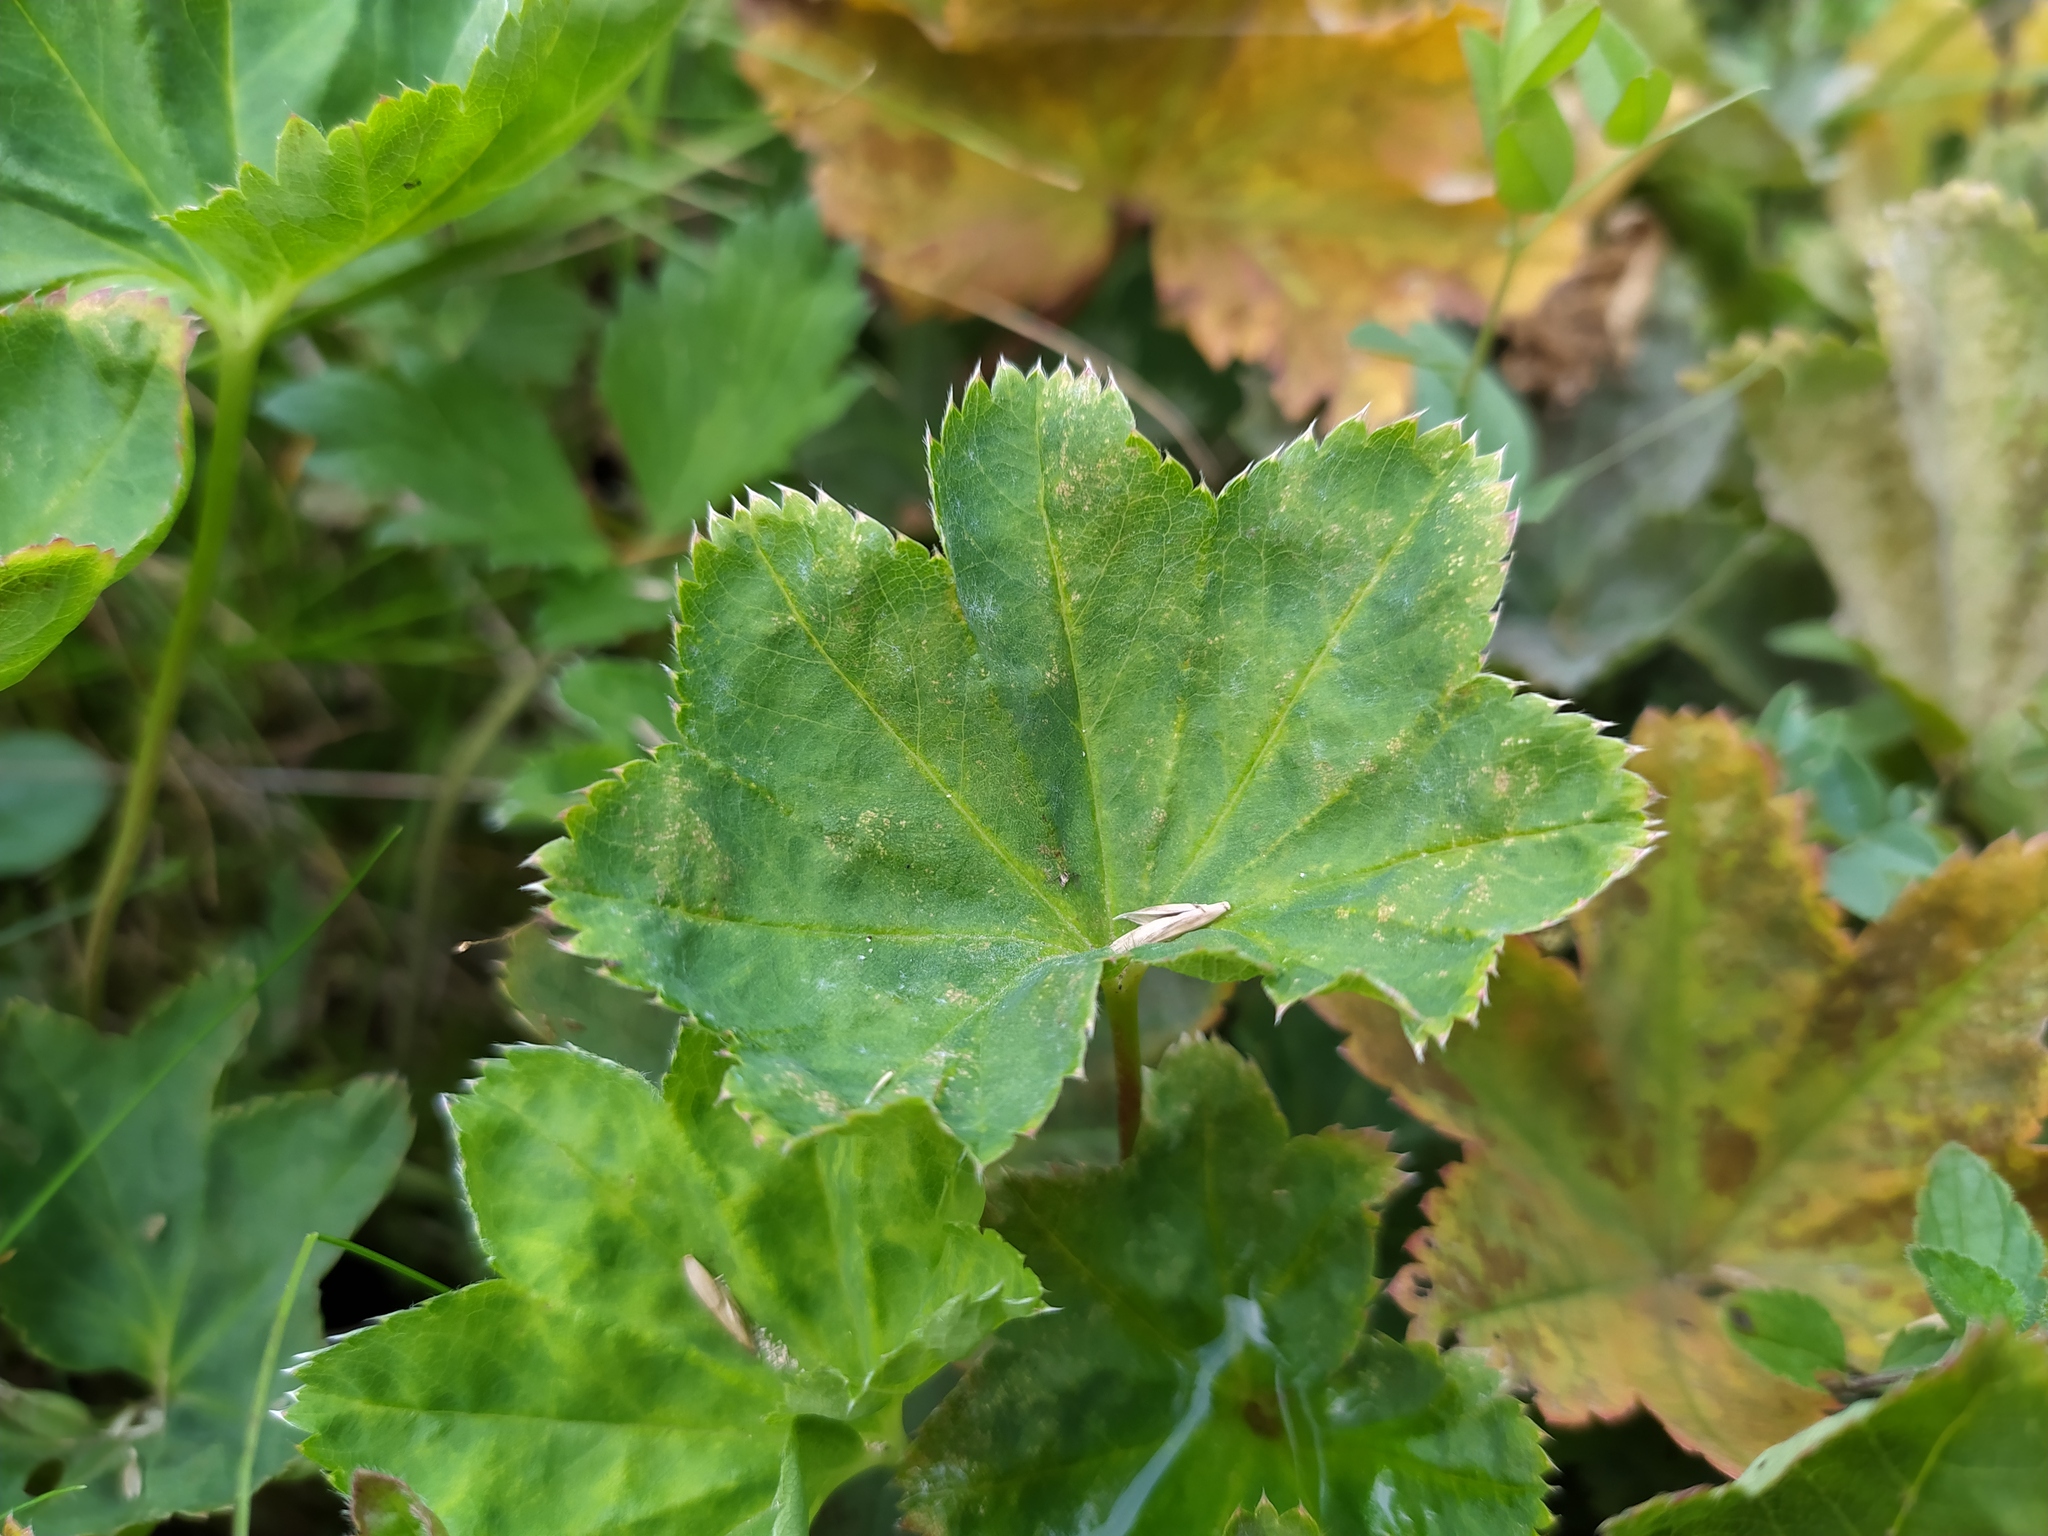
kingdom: Plantae
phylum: Tracheophyta
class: Magnoliopsida
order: Rosales
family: Rosaceae
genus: Alchemilla
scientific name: Alchemilla glabra
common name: Smooth lady's-mantle
